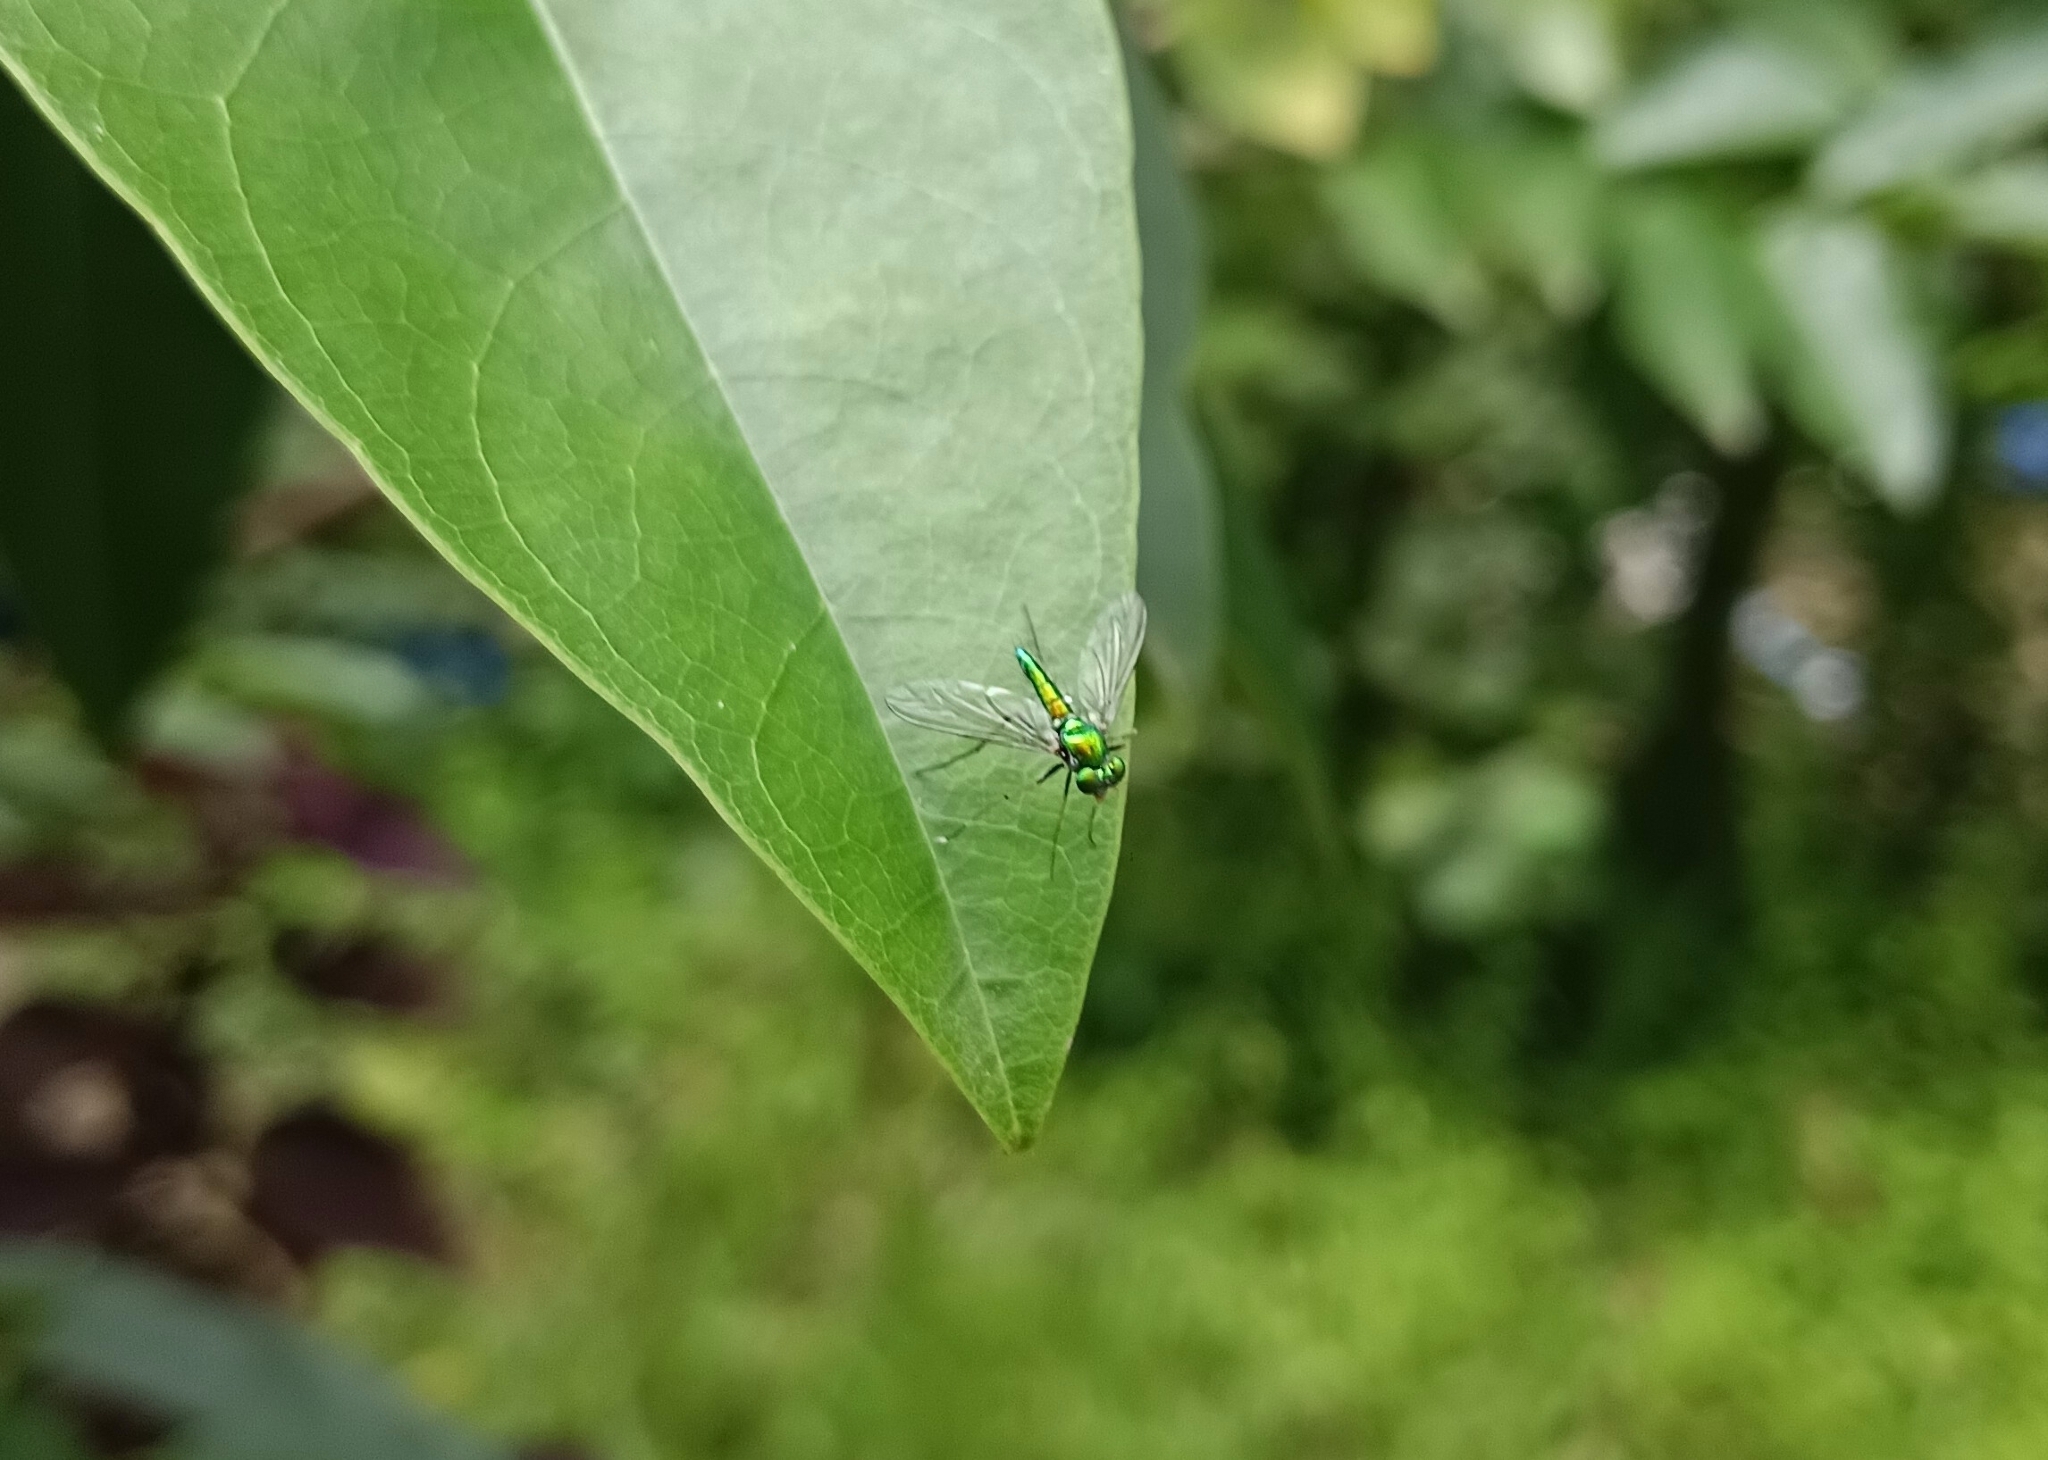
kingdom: Animalia
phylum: Arthropoda
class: Insecta
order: Diptera
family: Dolichopodidae
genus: Chrysosoma
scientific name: Chrysosoma leucopogon
